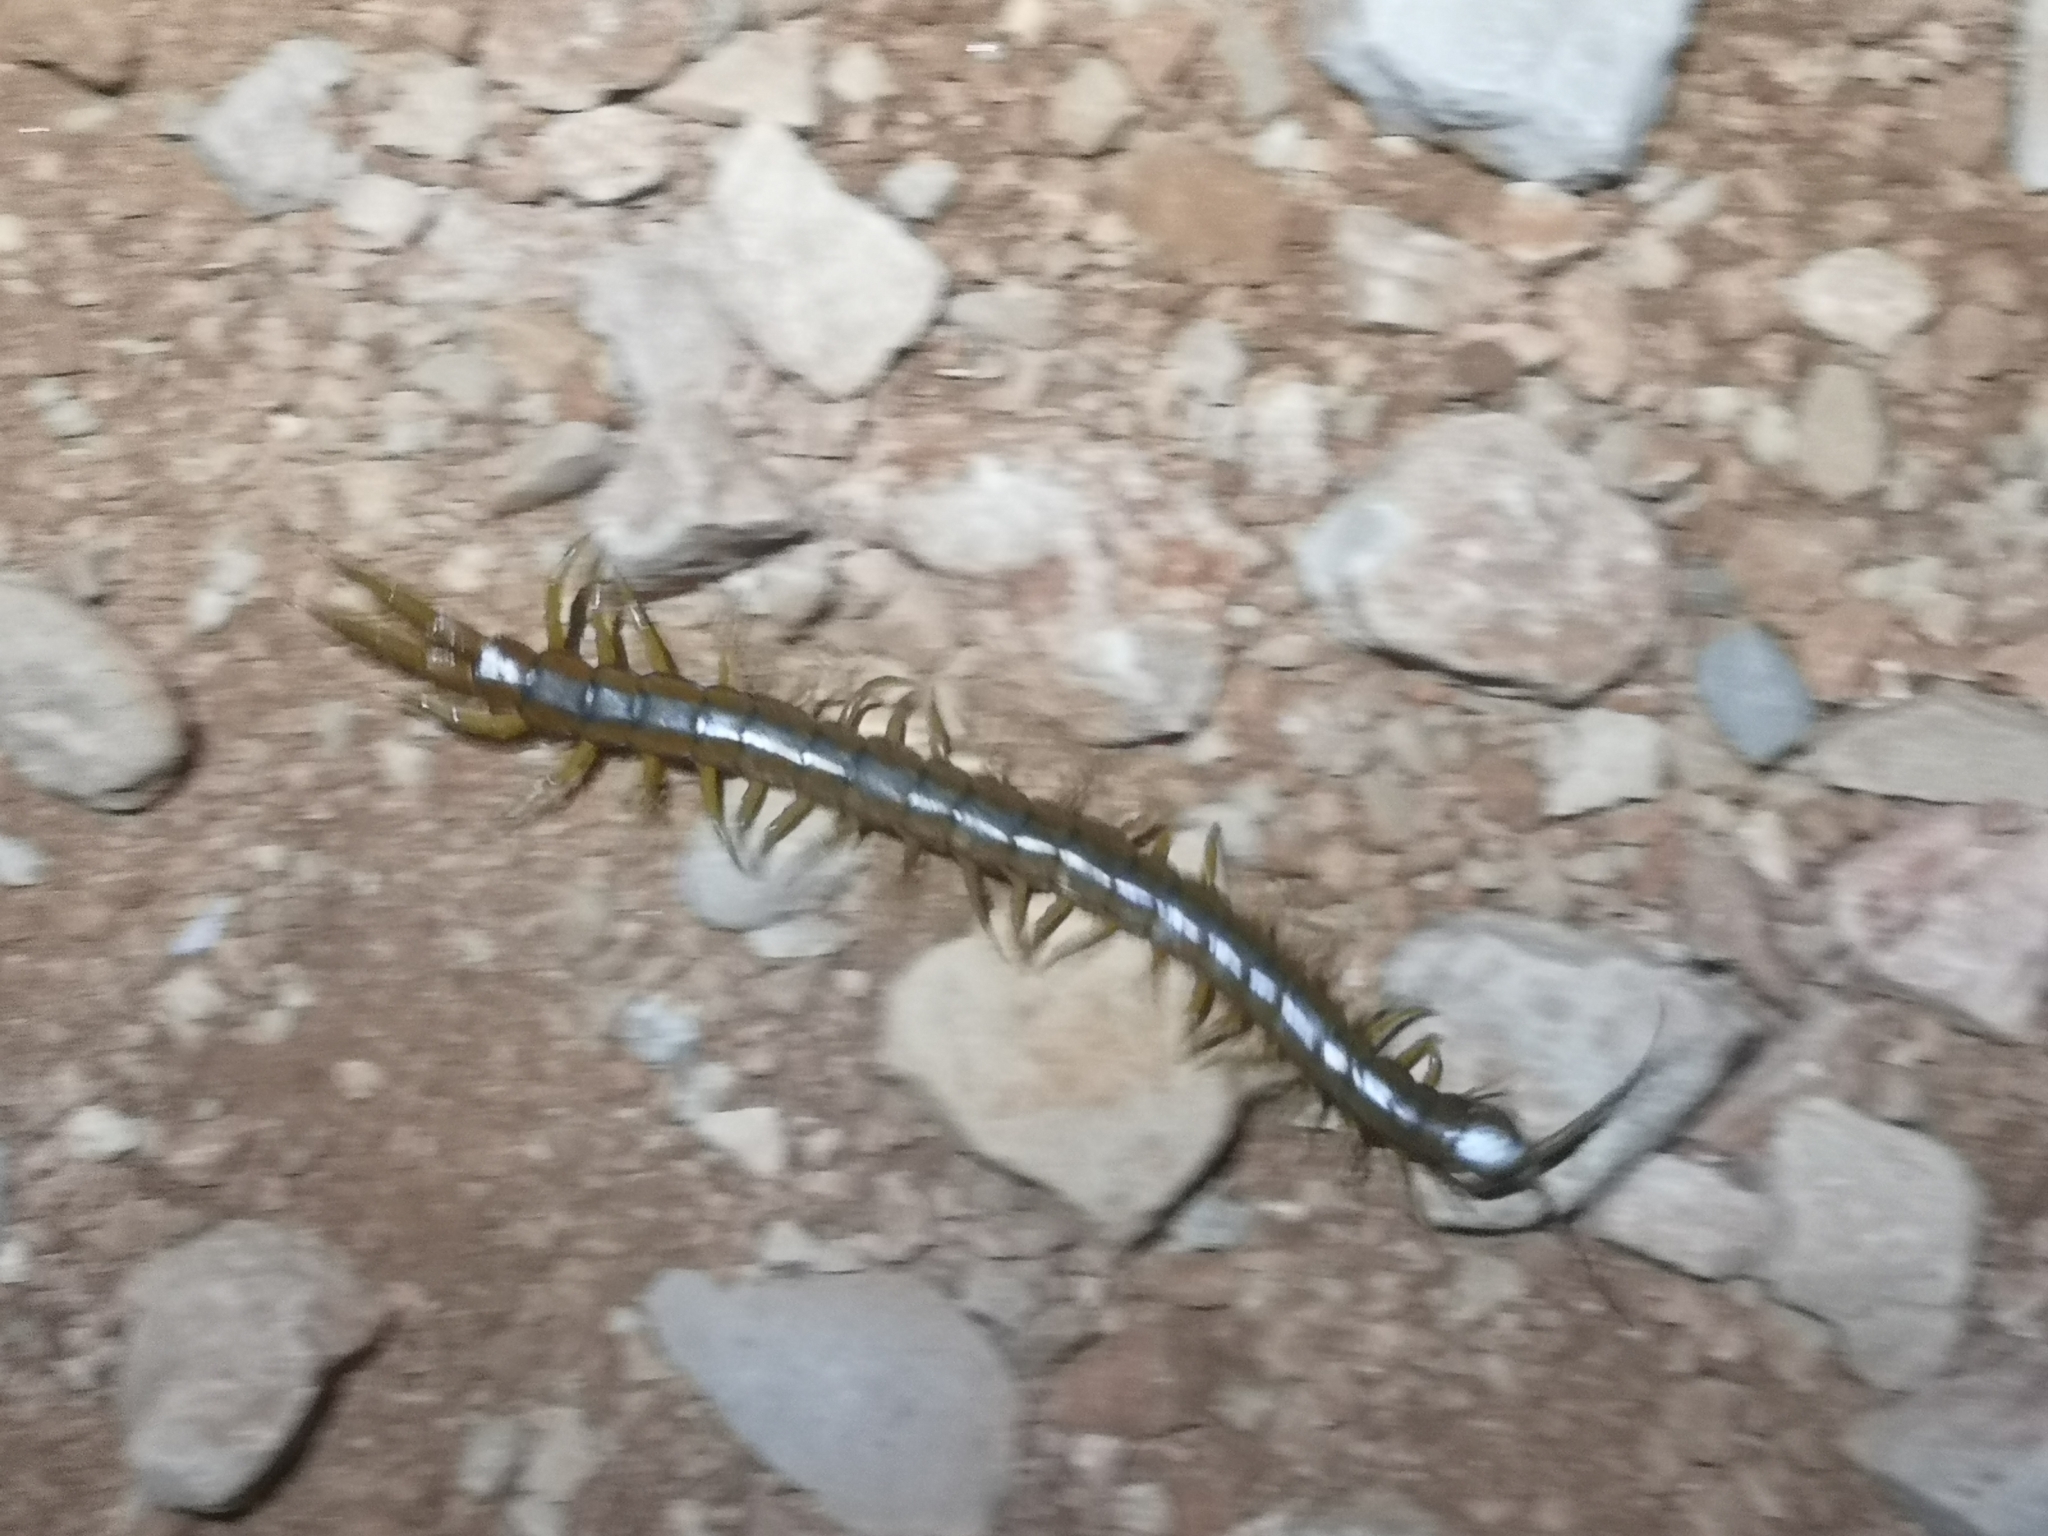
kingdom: Animalia
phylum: Arthropoda
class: Chilopoda
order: Scolopendromorpha
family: Scolopendridae
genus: Scolopendra
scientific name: Scolopendra cingulata
